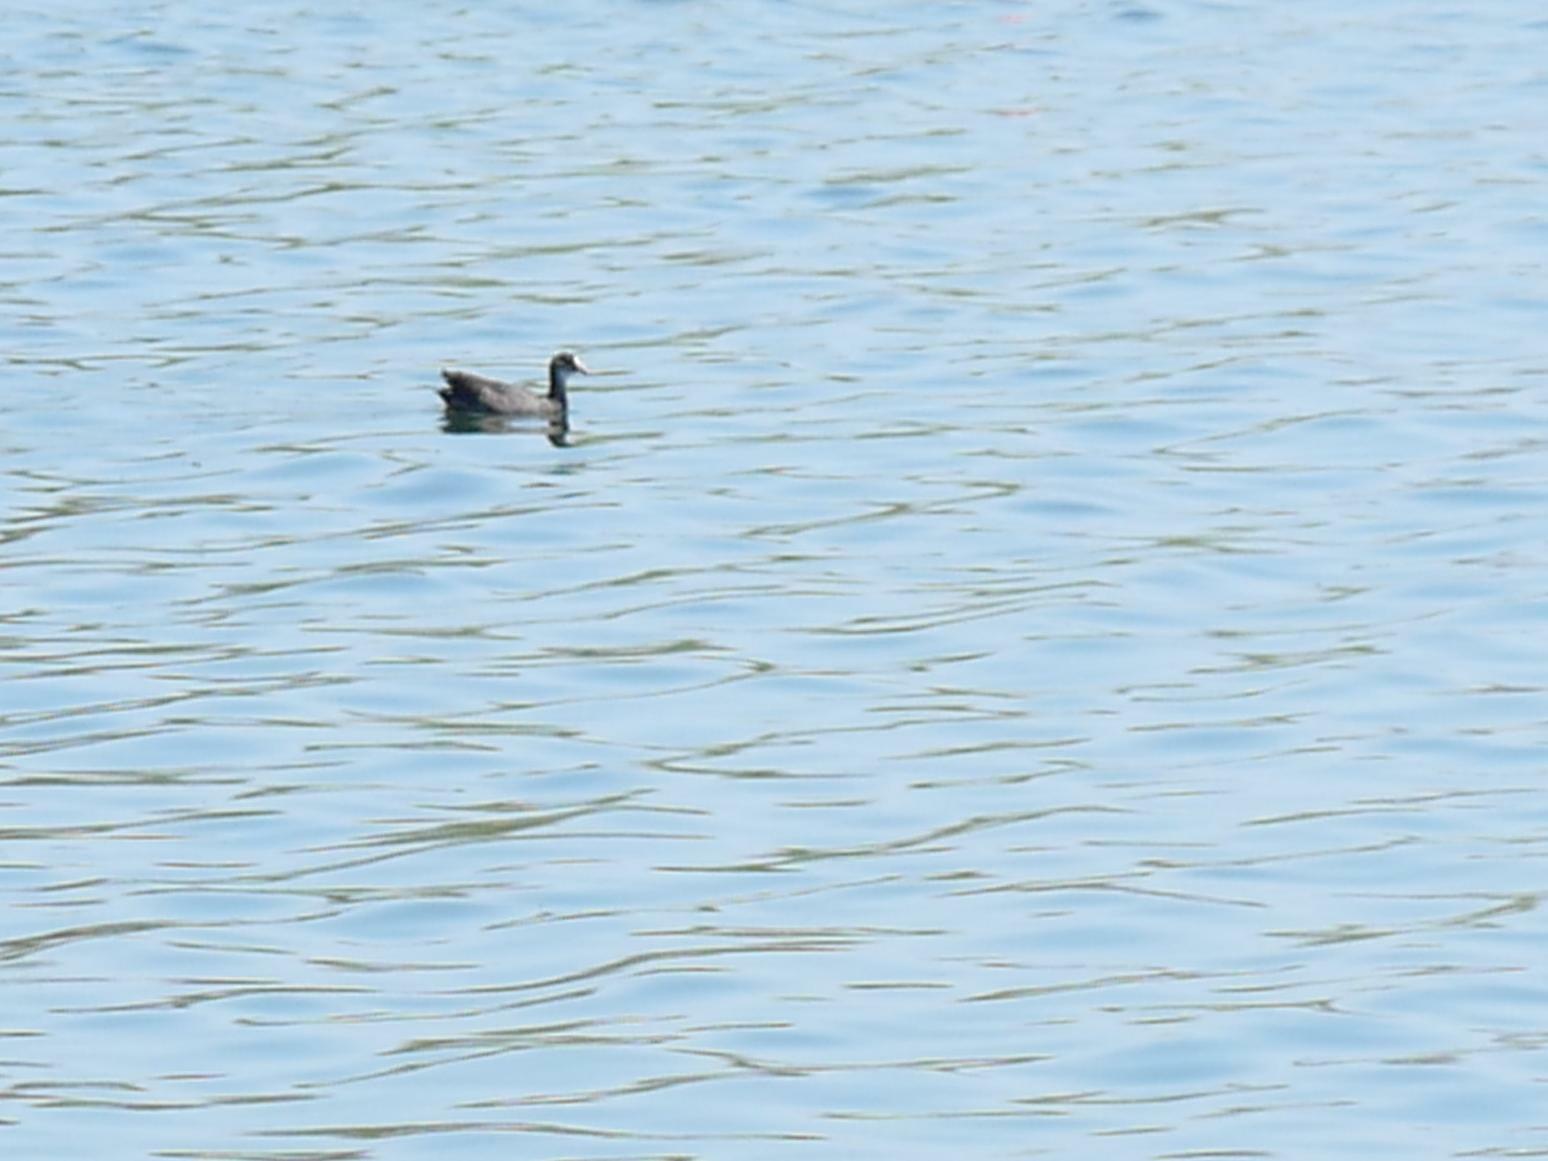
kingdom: Animalia
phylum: Chordata
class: Aves
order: Gruiformes
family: Rallidae
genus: Fulica
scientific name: Fulica atra
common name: Eurasian coot
